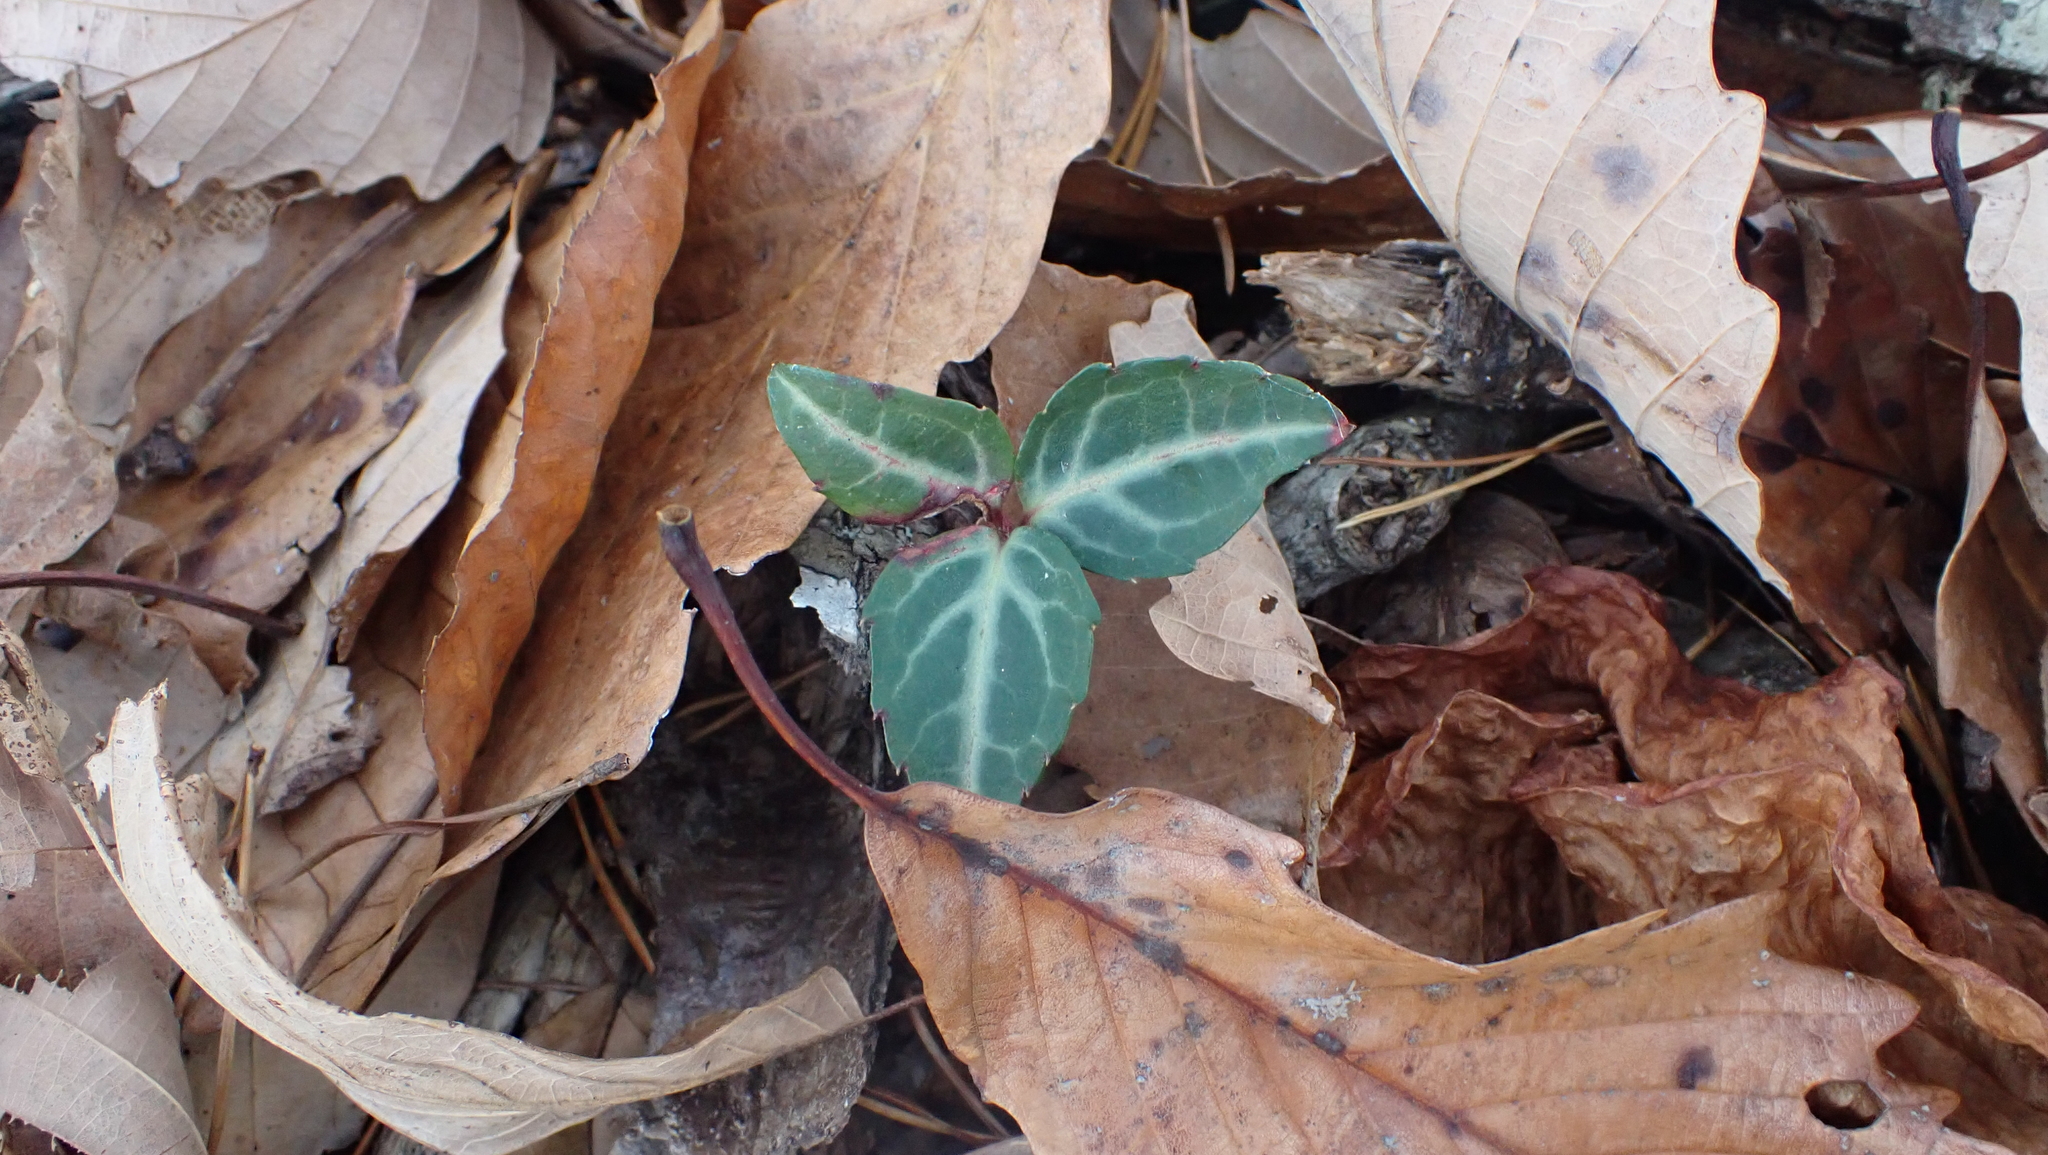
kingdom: Plantae
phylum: Tracheophyta
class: Magnoliopsida
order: Ericales
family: Ericaceae
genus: Chimaphila
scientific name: Chimaphila maculata
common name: Spotted pipsissewa
